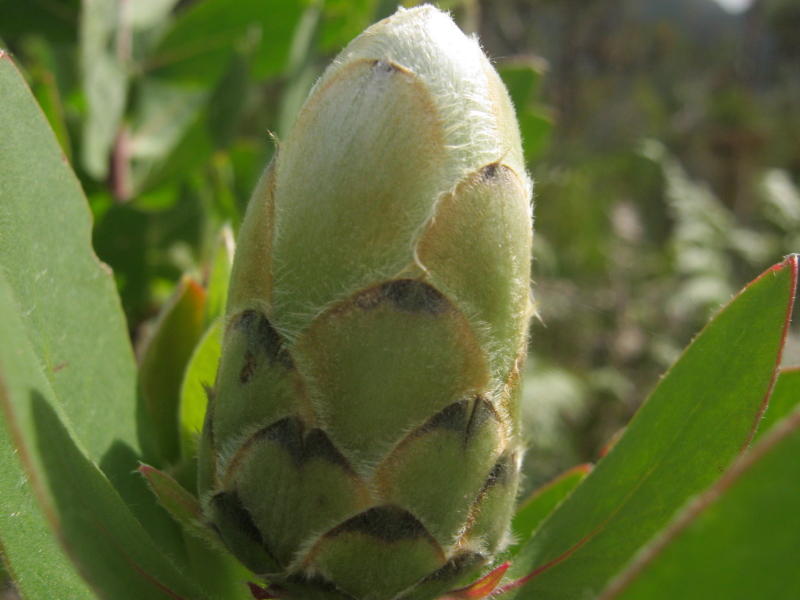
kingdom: Plantae
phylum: Tracheophyta
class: Magnoliopsida
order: Proteales
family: Proteaceae
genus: Protea
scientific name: Protea mundii
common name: Forest sugarbush
